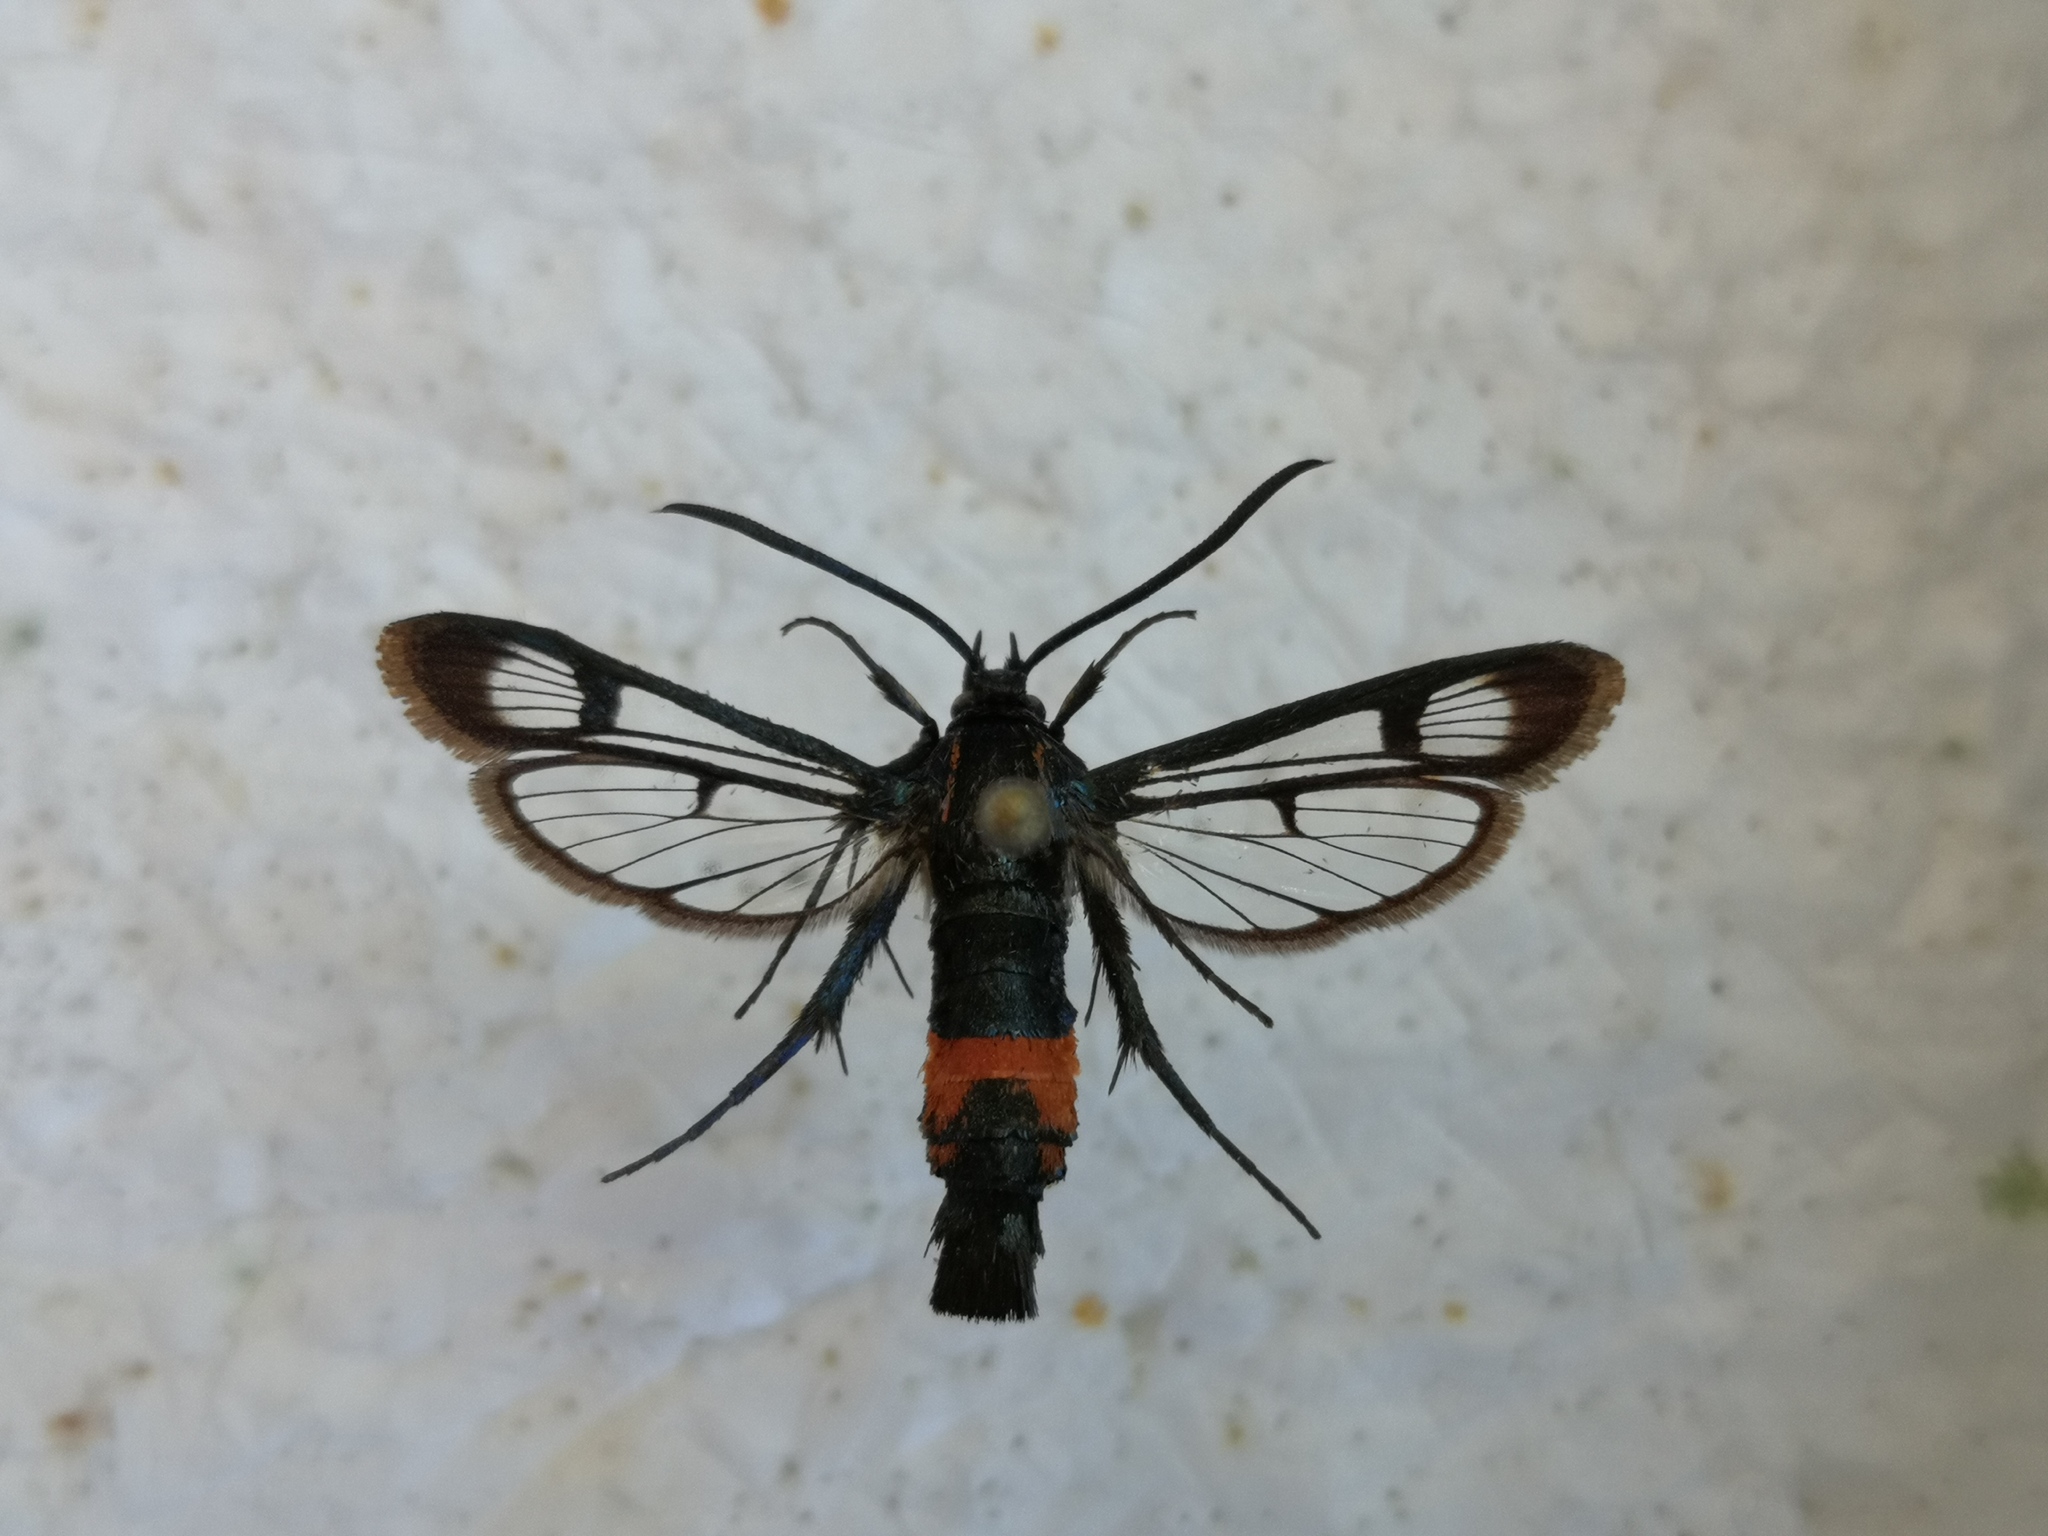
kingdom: Animalia
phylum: Arthropoda
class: Insecta
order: Lepidoptera
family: Sesiidae
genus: Synanthedon
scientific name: Synanthedon stomoxiformis
